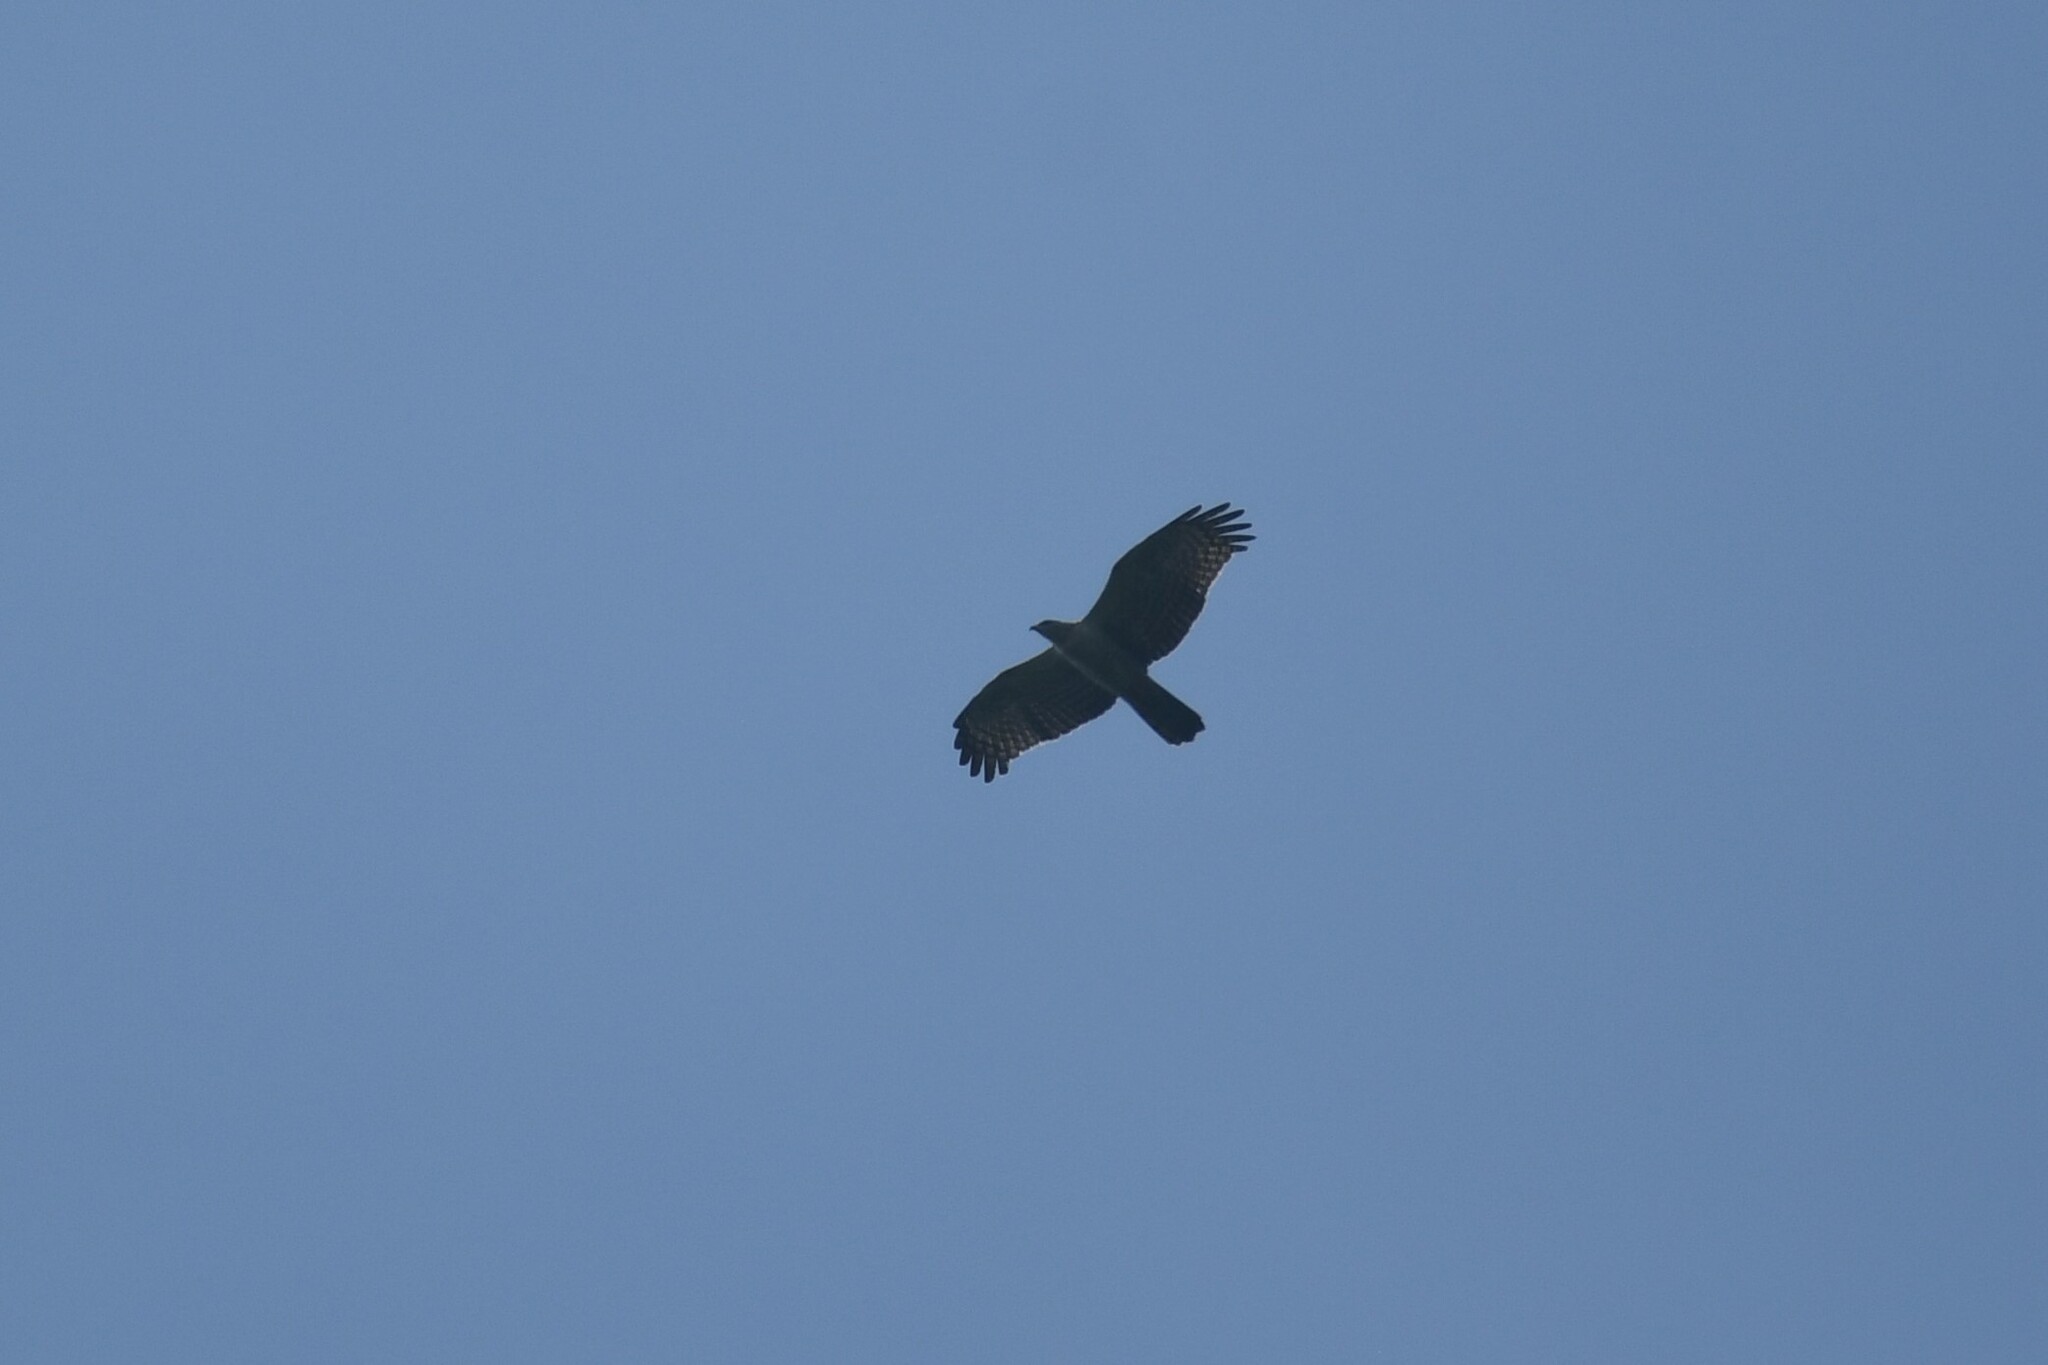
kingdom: Animalia
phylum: Chordata
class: Aves
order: Accipitriformes
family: Accipitridae
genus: Pernis
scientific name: Pernis ptilorhynchus
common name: Crested honey buzzard
